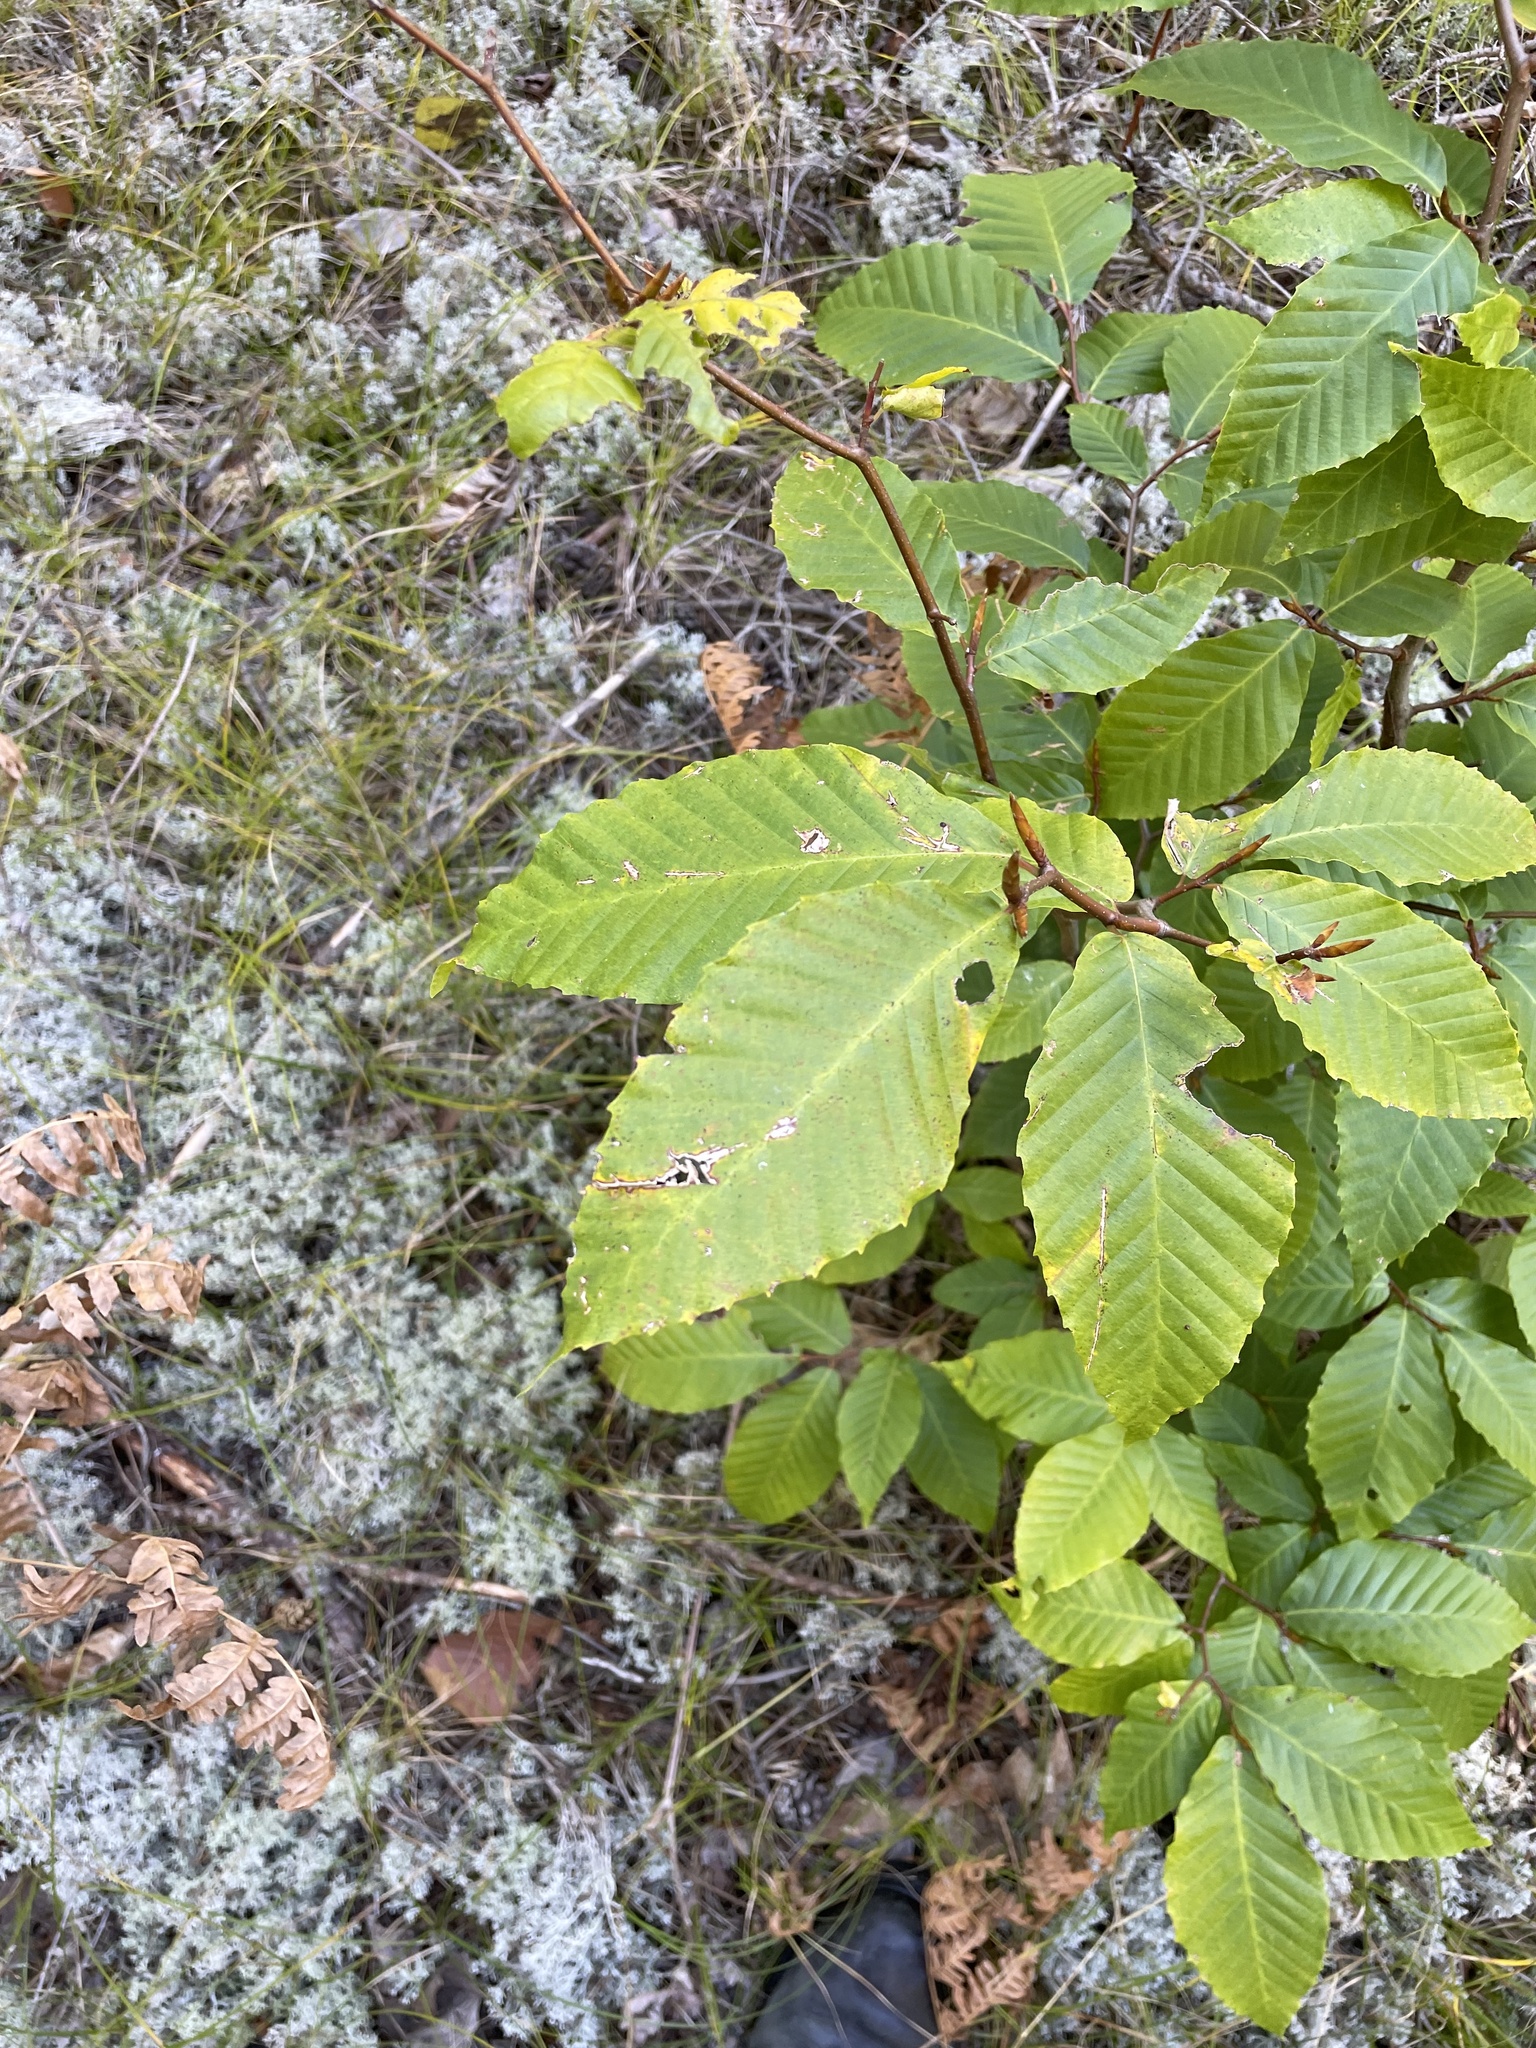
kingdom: Plantae
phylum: Tracheophyta
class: Magnoliopsida
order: Fagales
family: Fagaceae
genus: Fagus
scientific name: Fagus grandifolia
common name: American beech
